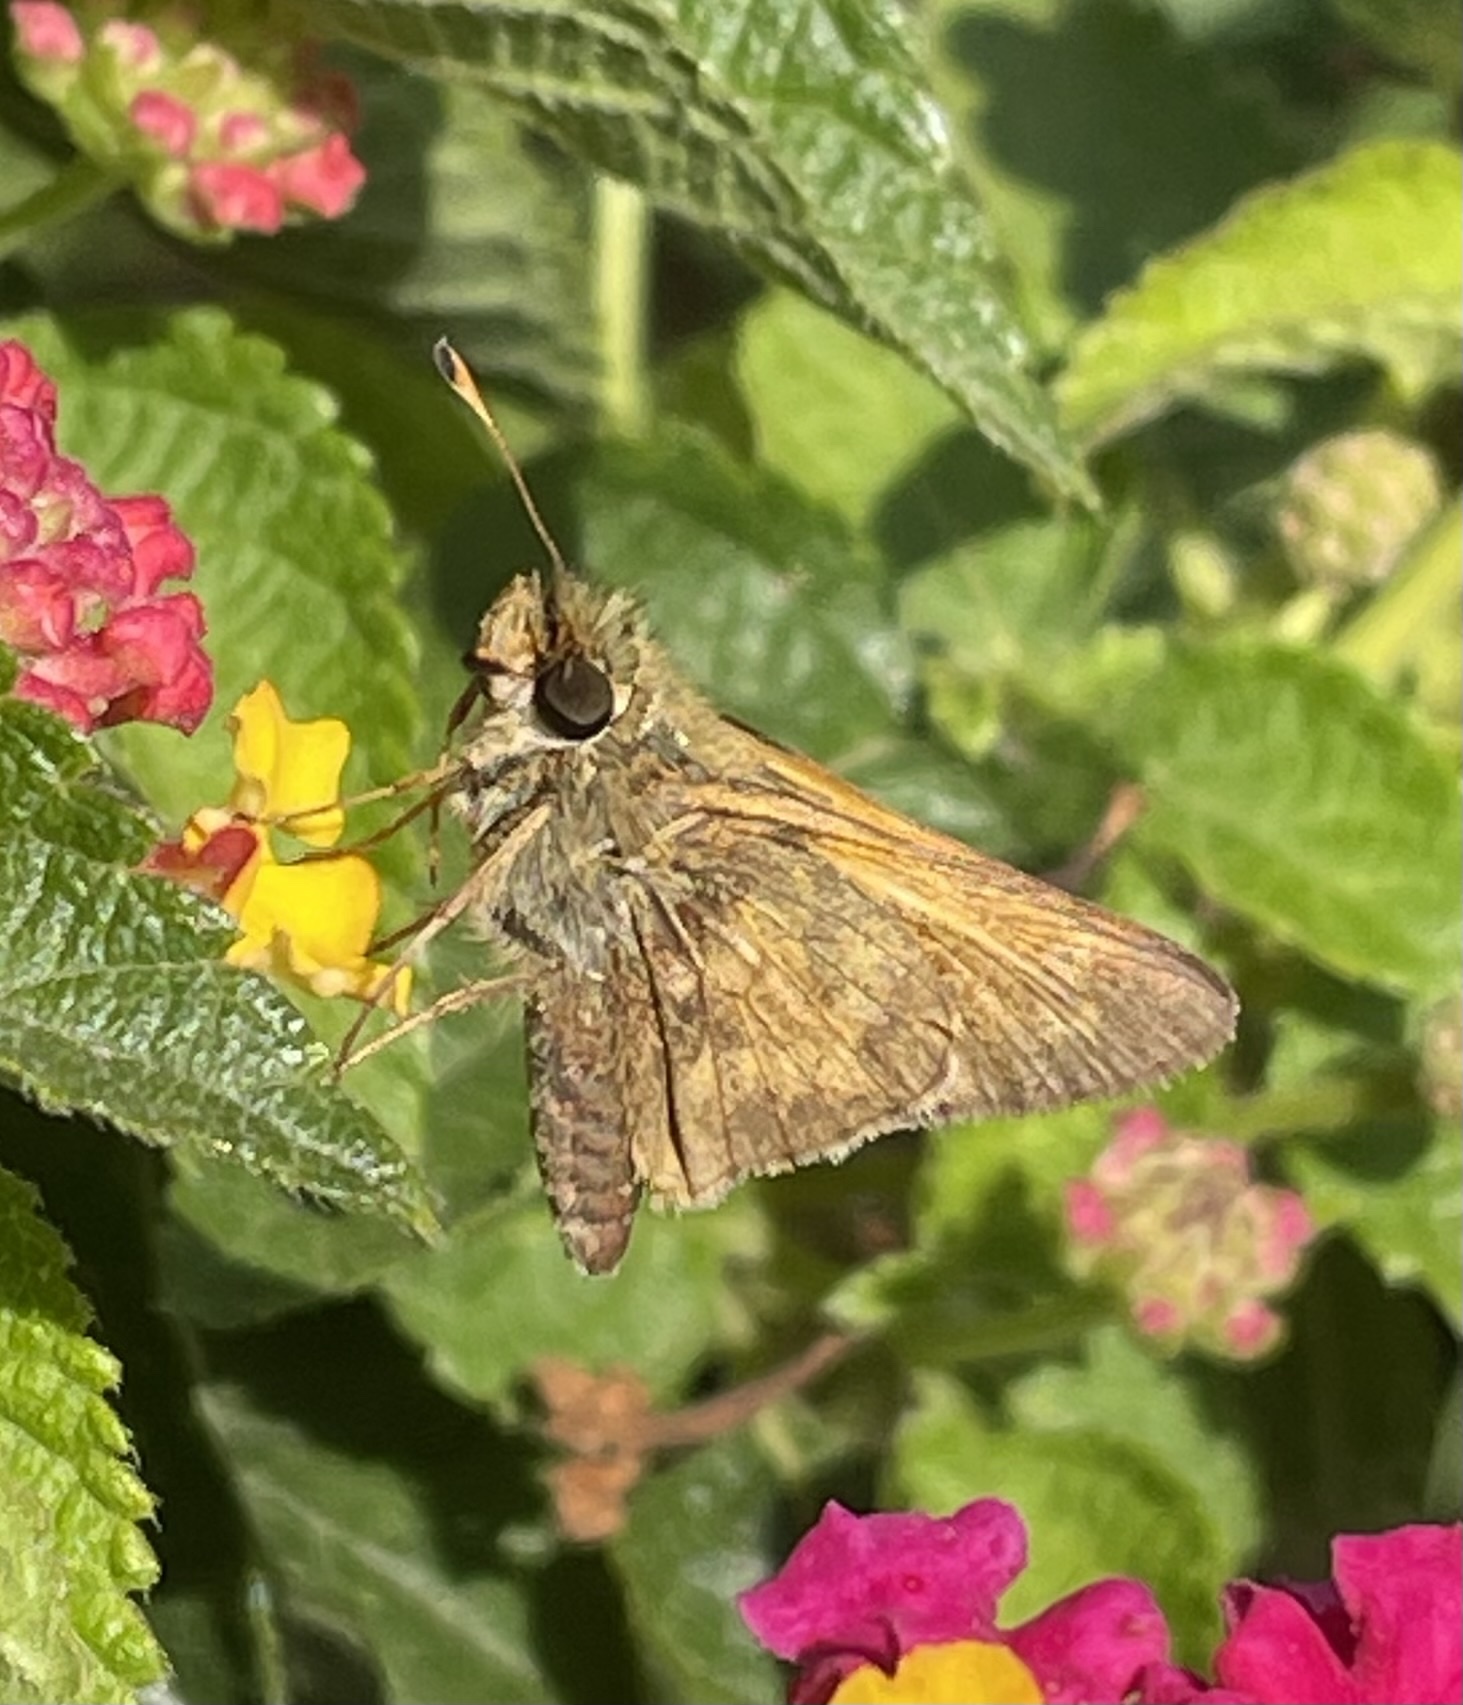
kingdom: Animalia
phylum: Arthropoda
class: Insecta
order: Lepidoptera
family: Hesperiidae
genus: Atalopedes
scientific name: Atalopedes
